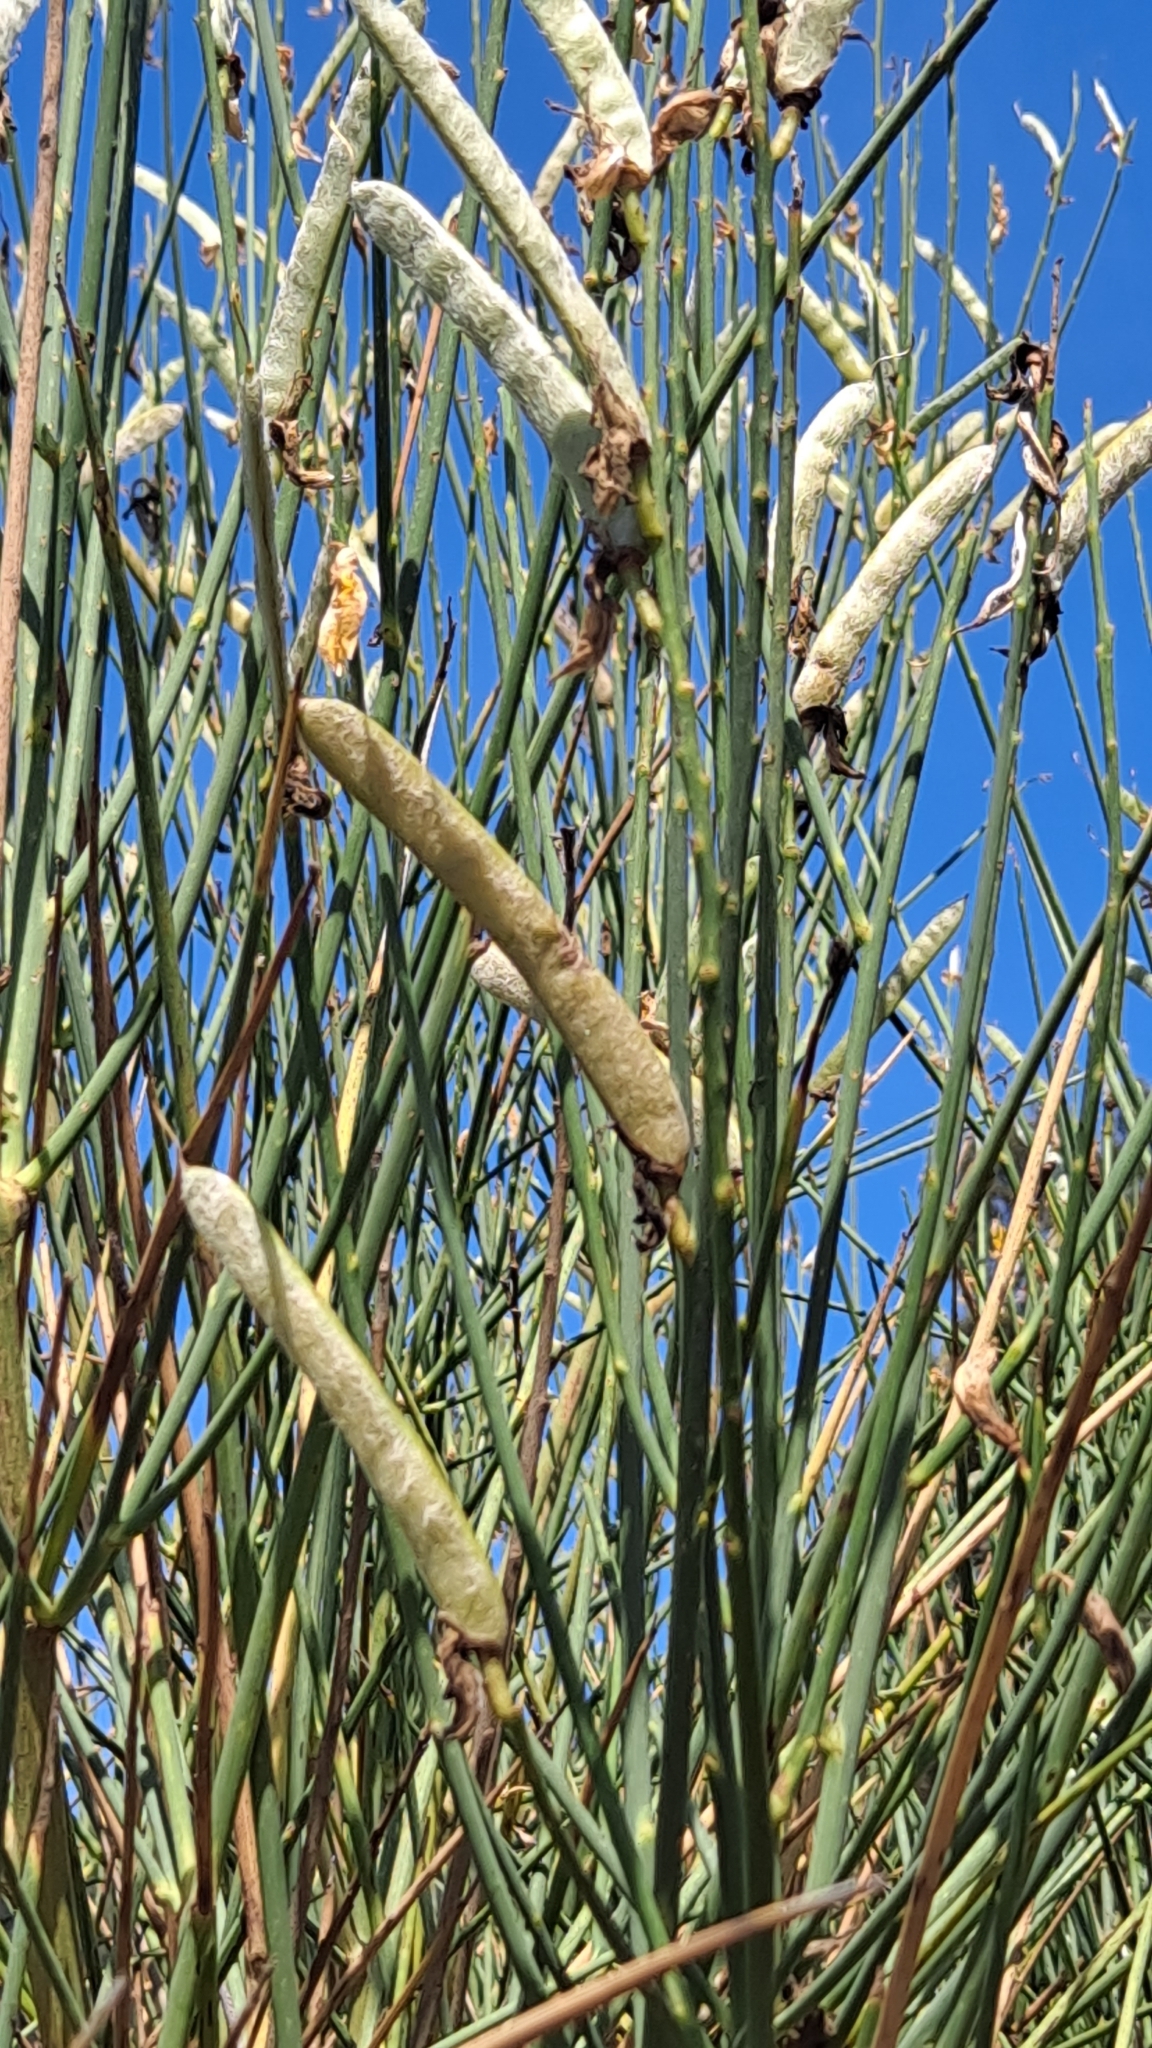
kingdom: Plantae
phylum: Tracheophyta
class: Magnoliopsida
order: Fabales
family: Fabaceae
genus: Spartium
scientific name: Spartium junceum
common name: Spanish broom
